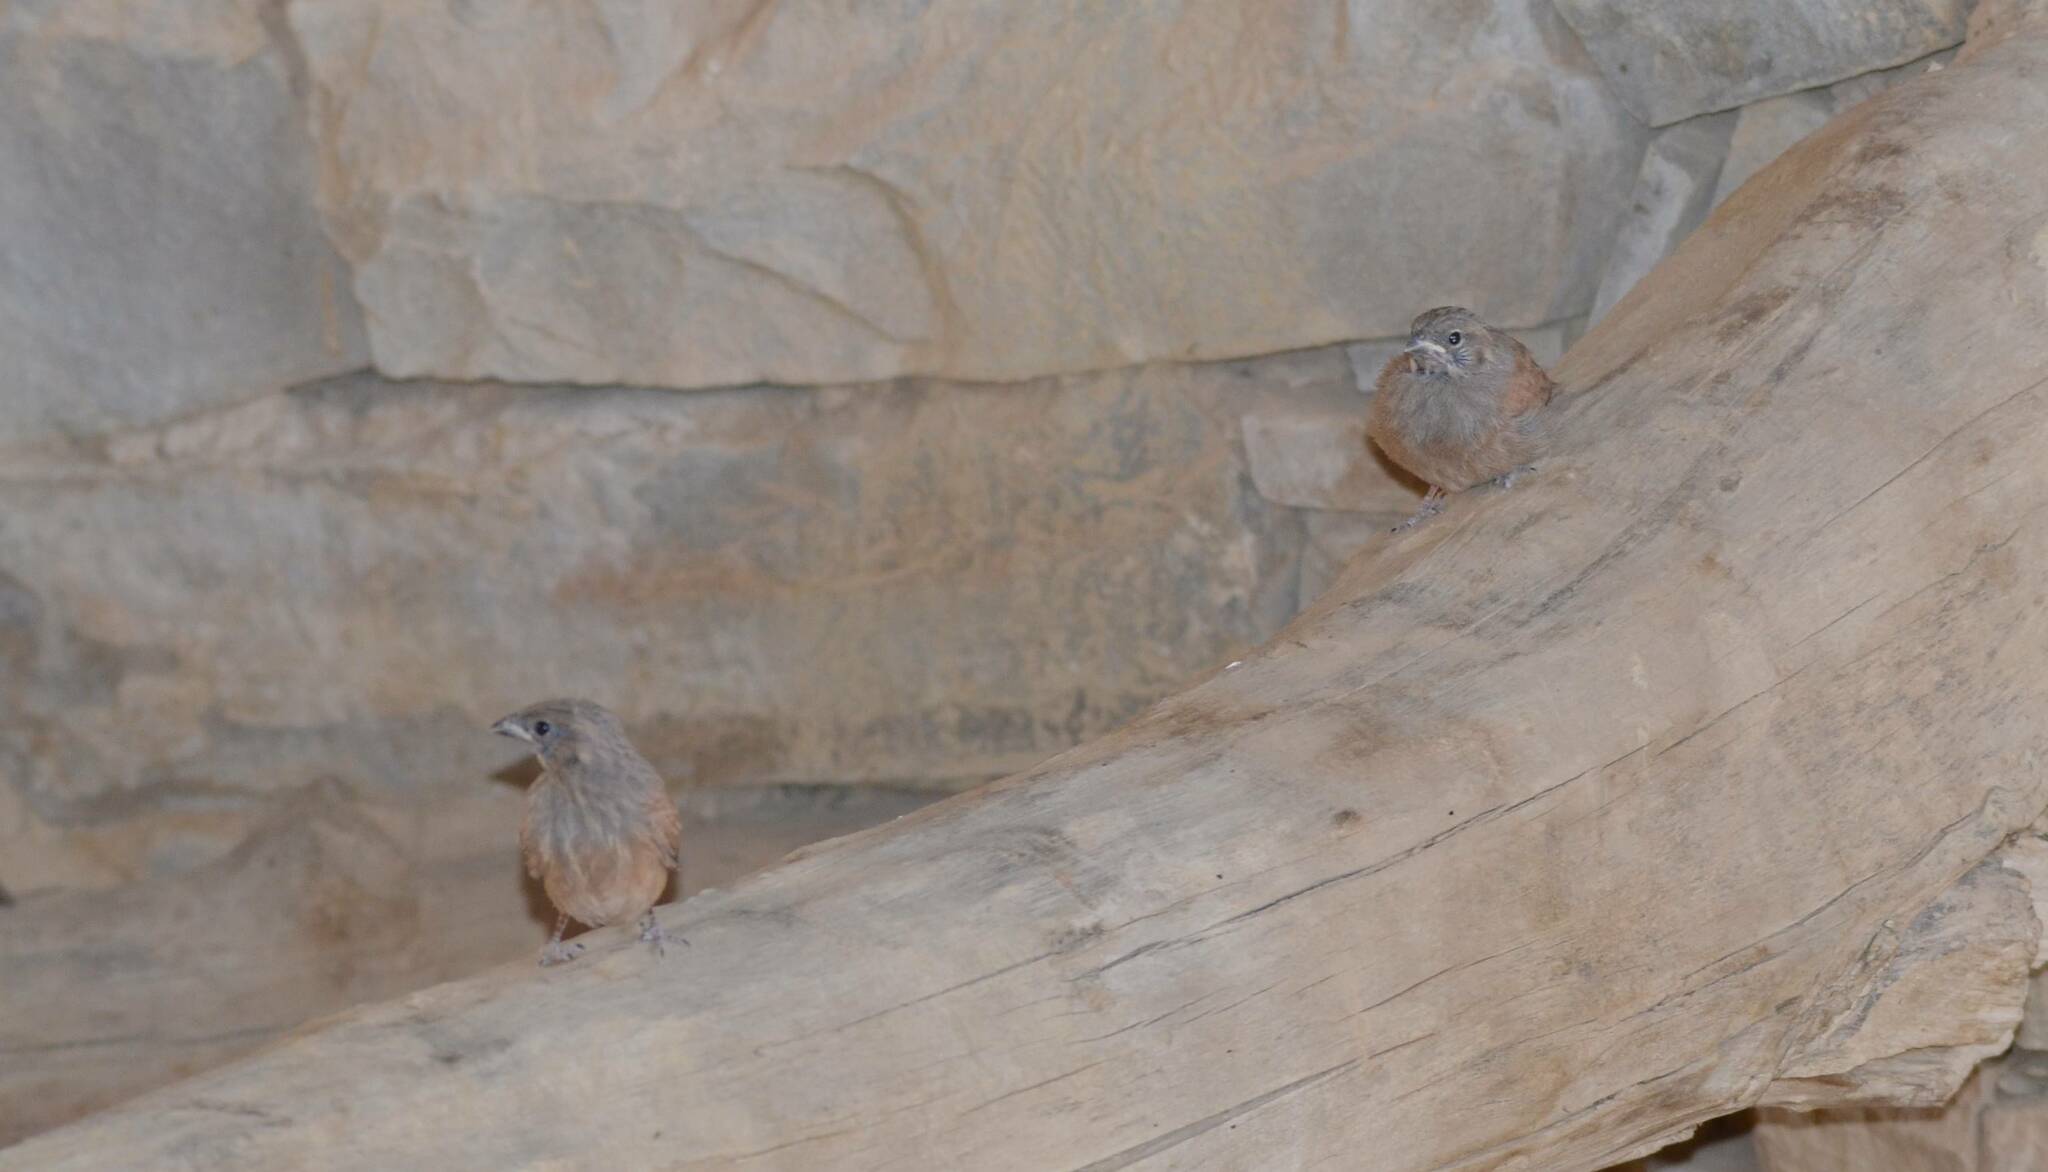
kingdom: Animalia
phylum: Chordata
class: Aves
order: Passeriformes
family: Emberizidae
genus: Emberiza
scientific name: Emberiza sahari
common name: House bunting
